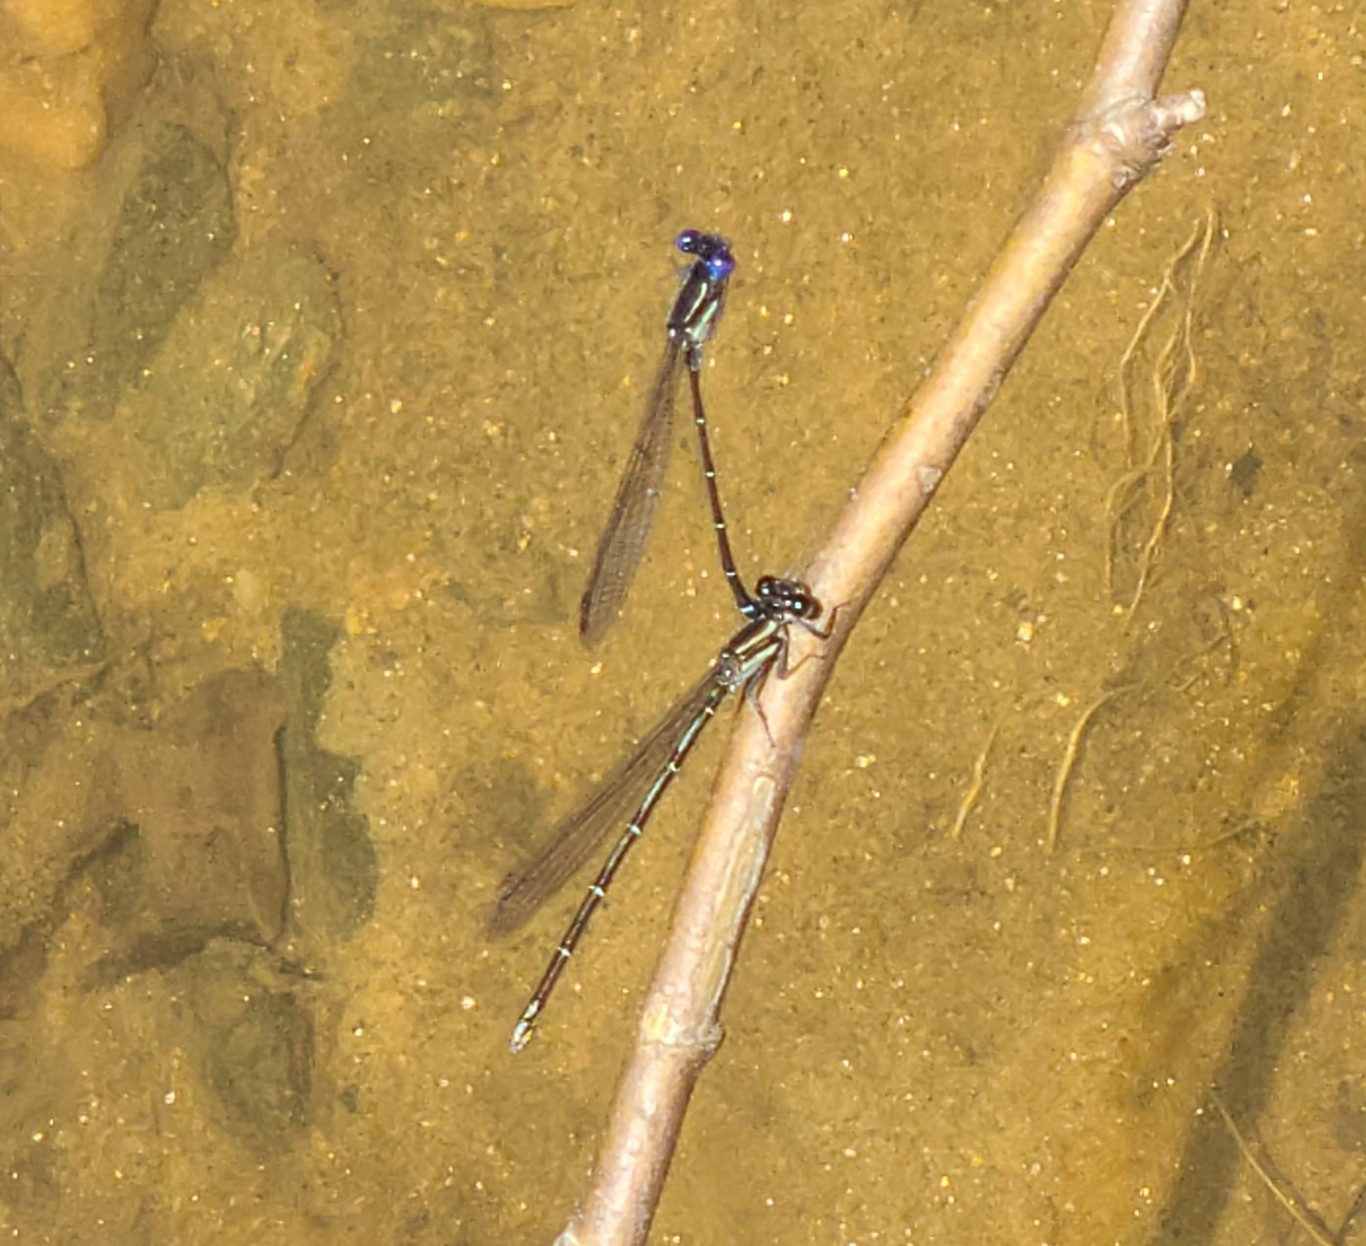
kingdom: Animalia
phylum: Arthropoda
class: Insecta
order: Odonata
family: Coenagrionidae
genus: Argia
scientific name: Argia translata
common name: Dusky dancer
